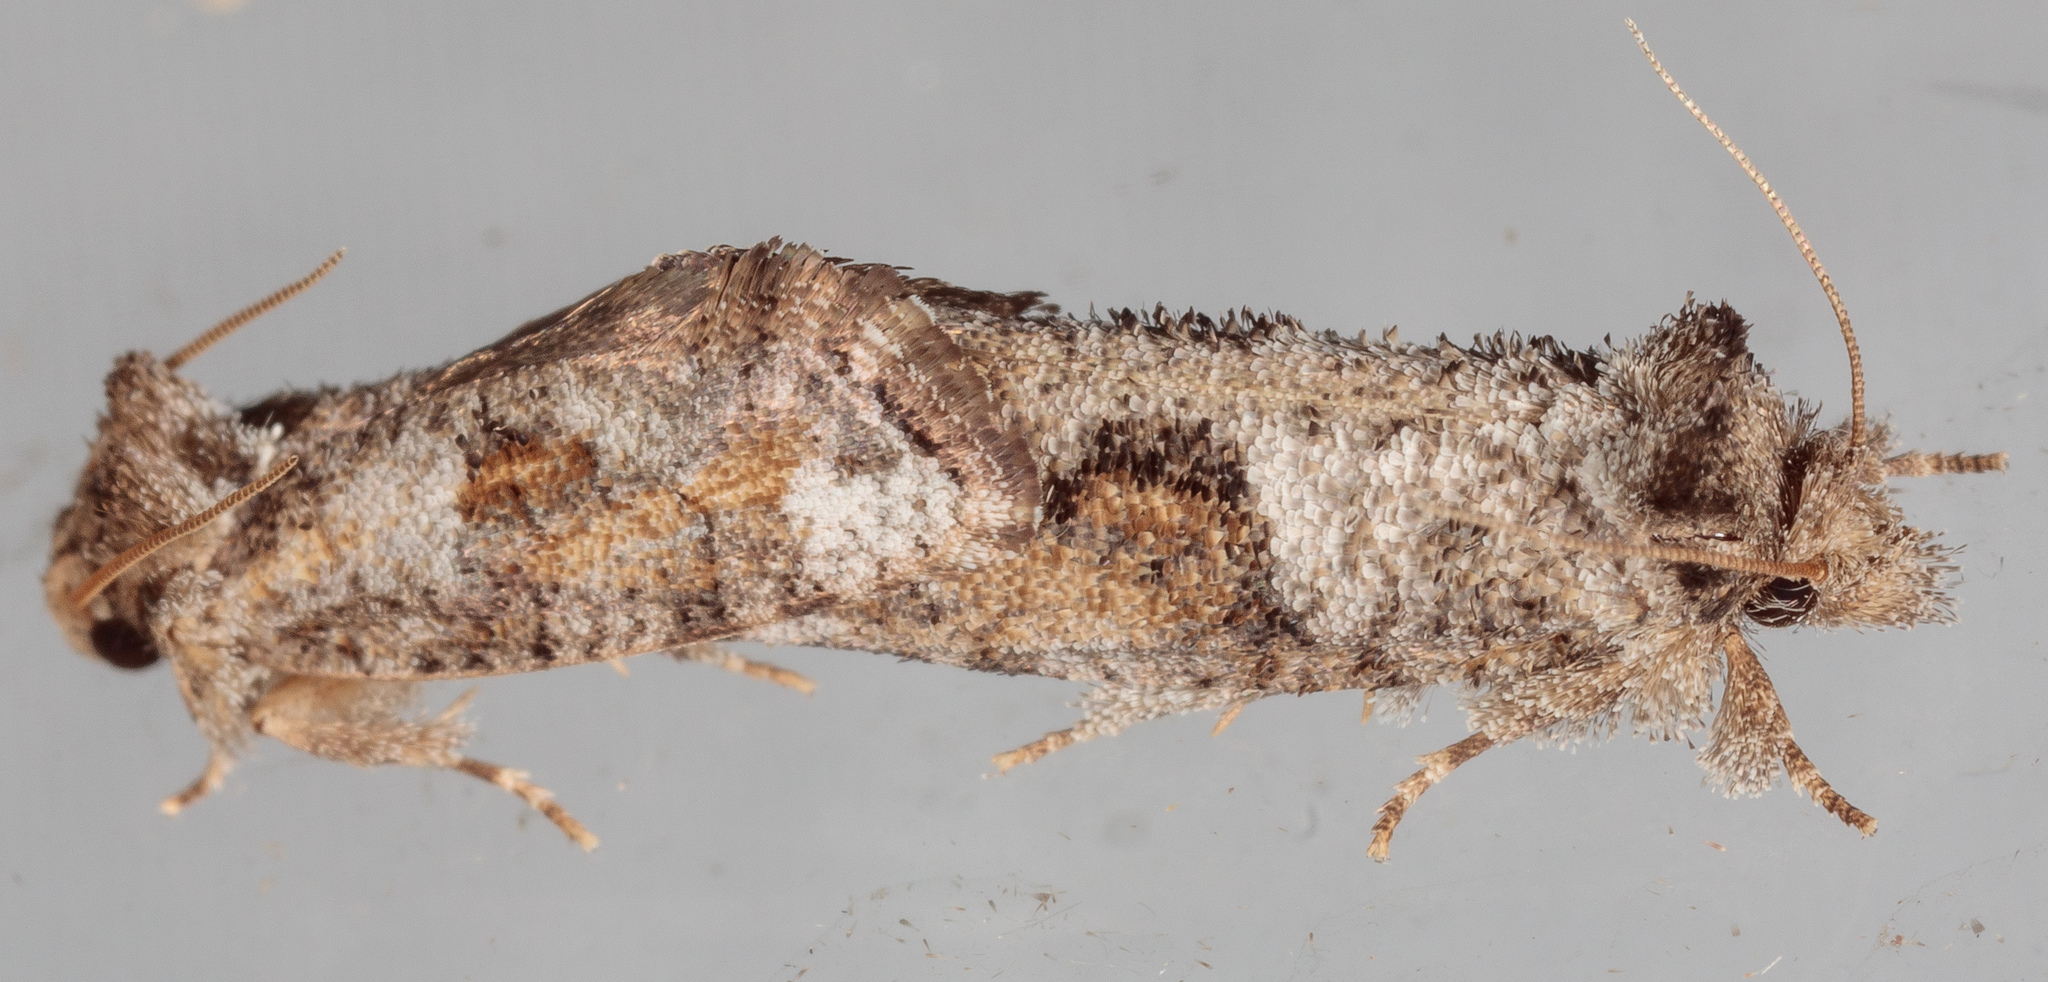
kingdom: Animalia
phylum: Arthropoda
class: Insecta
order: Lepidoptera
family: Tineidae
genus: Acrolophus
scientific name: Acrolophus piger
